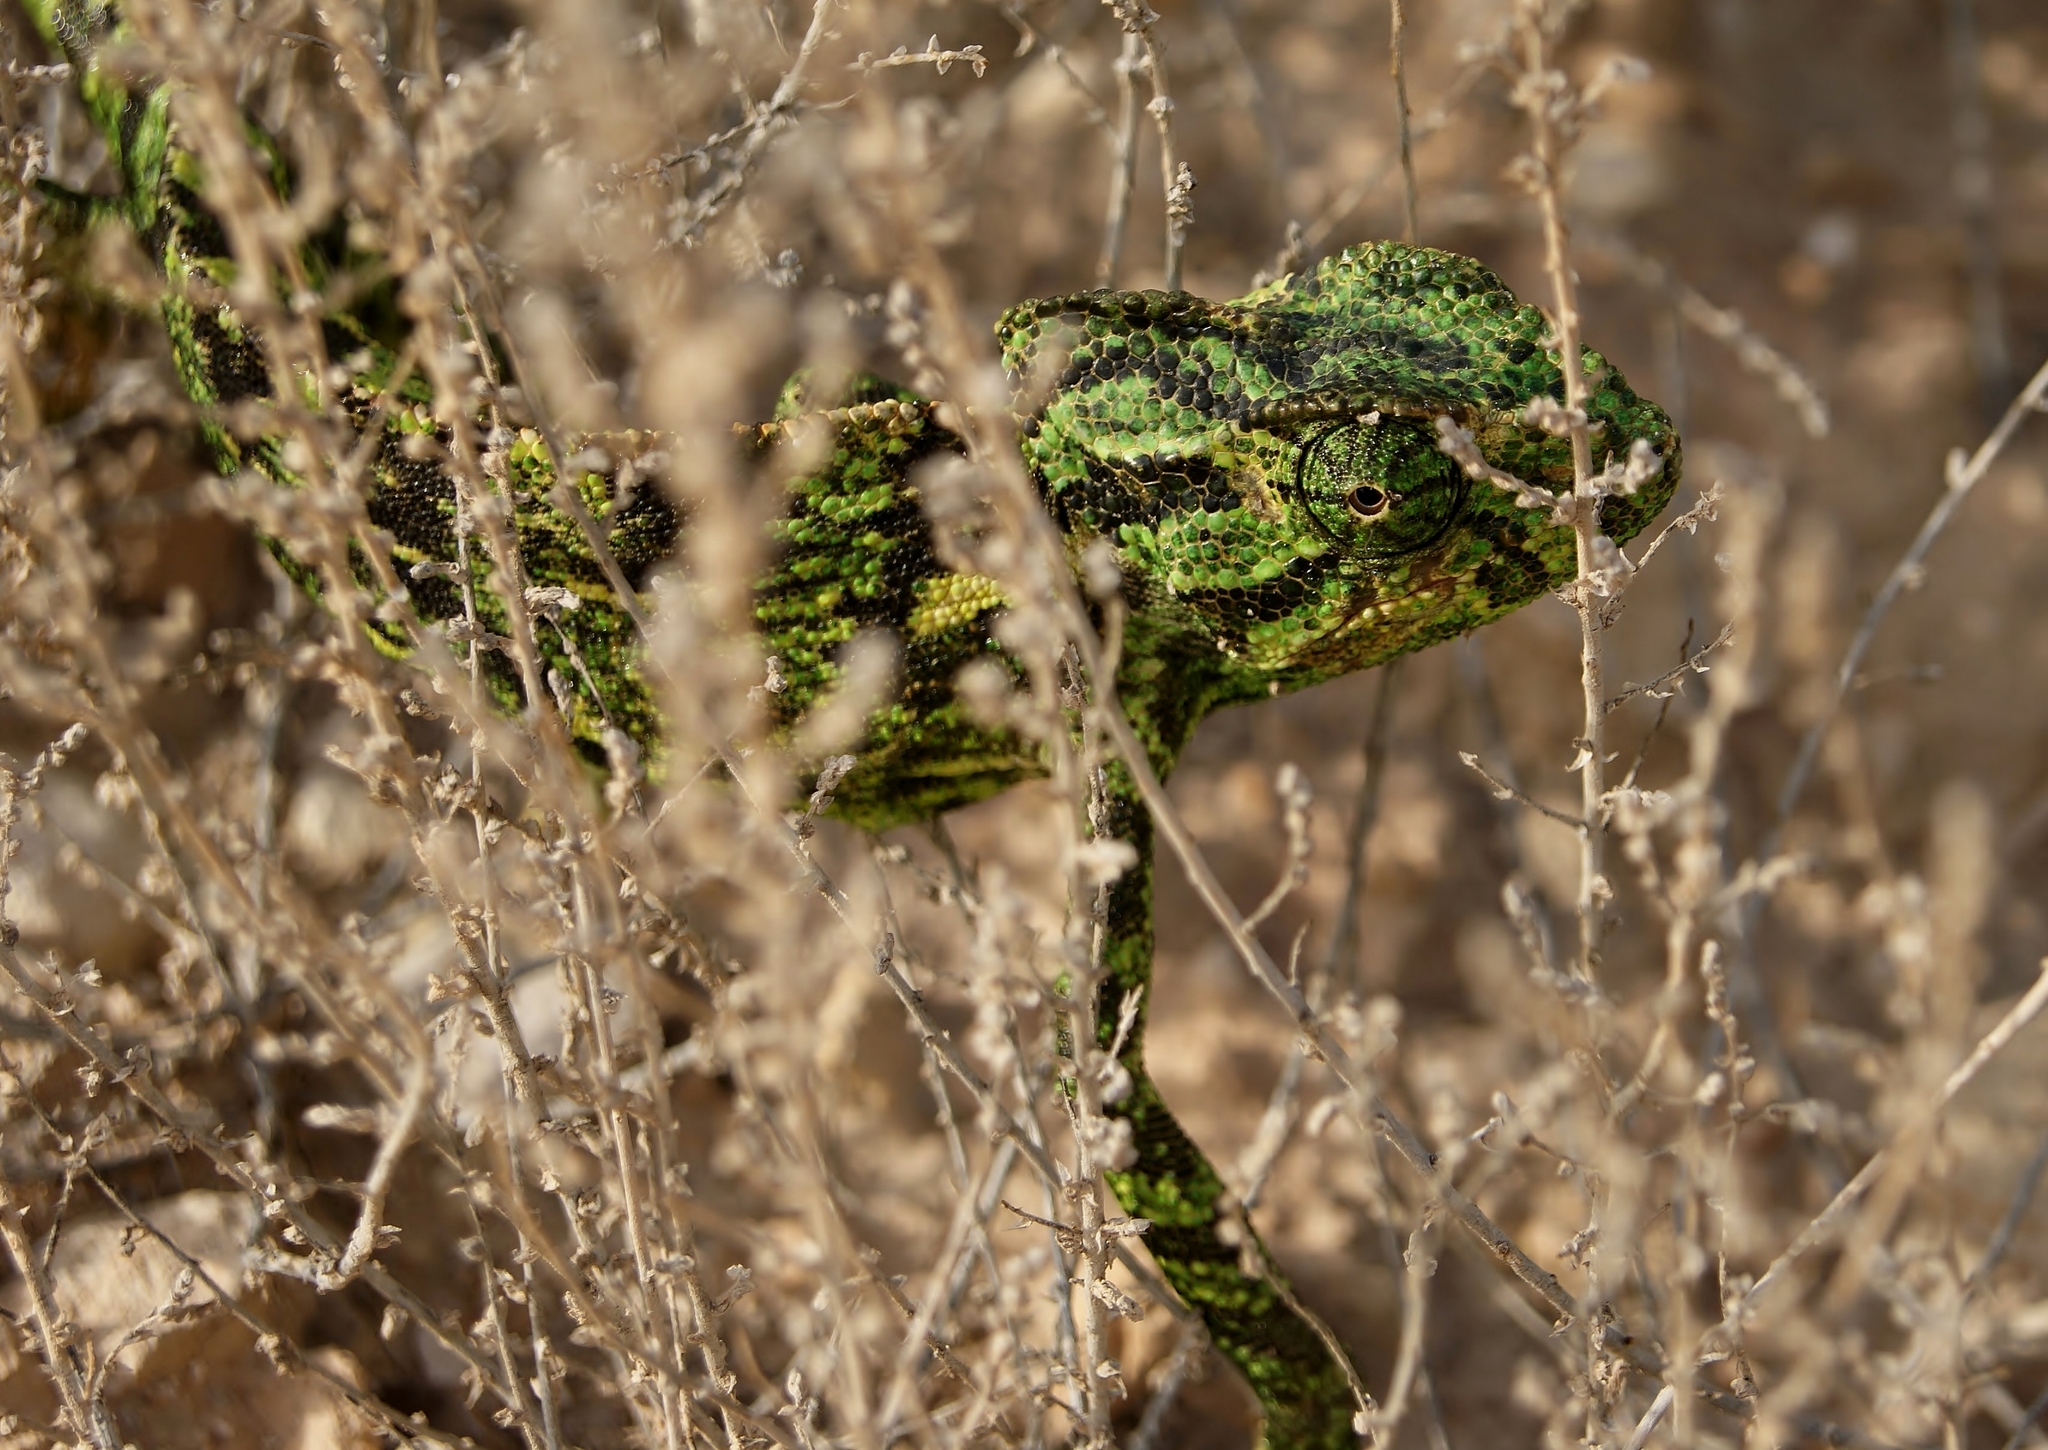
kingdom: Animalia
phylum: Chordata
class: Squamata
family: Chamaeleonidae
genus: Chamaeleo
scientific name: Chamaeleo chamaeleon
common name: Mediterranean chameleon
